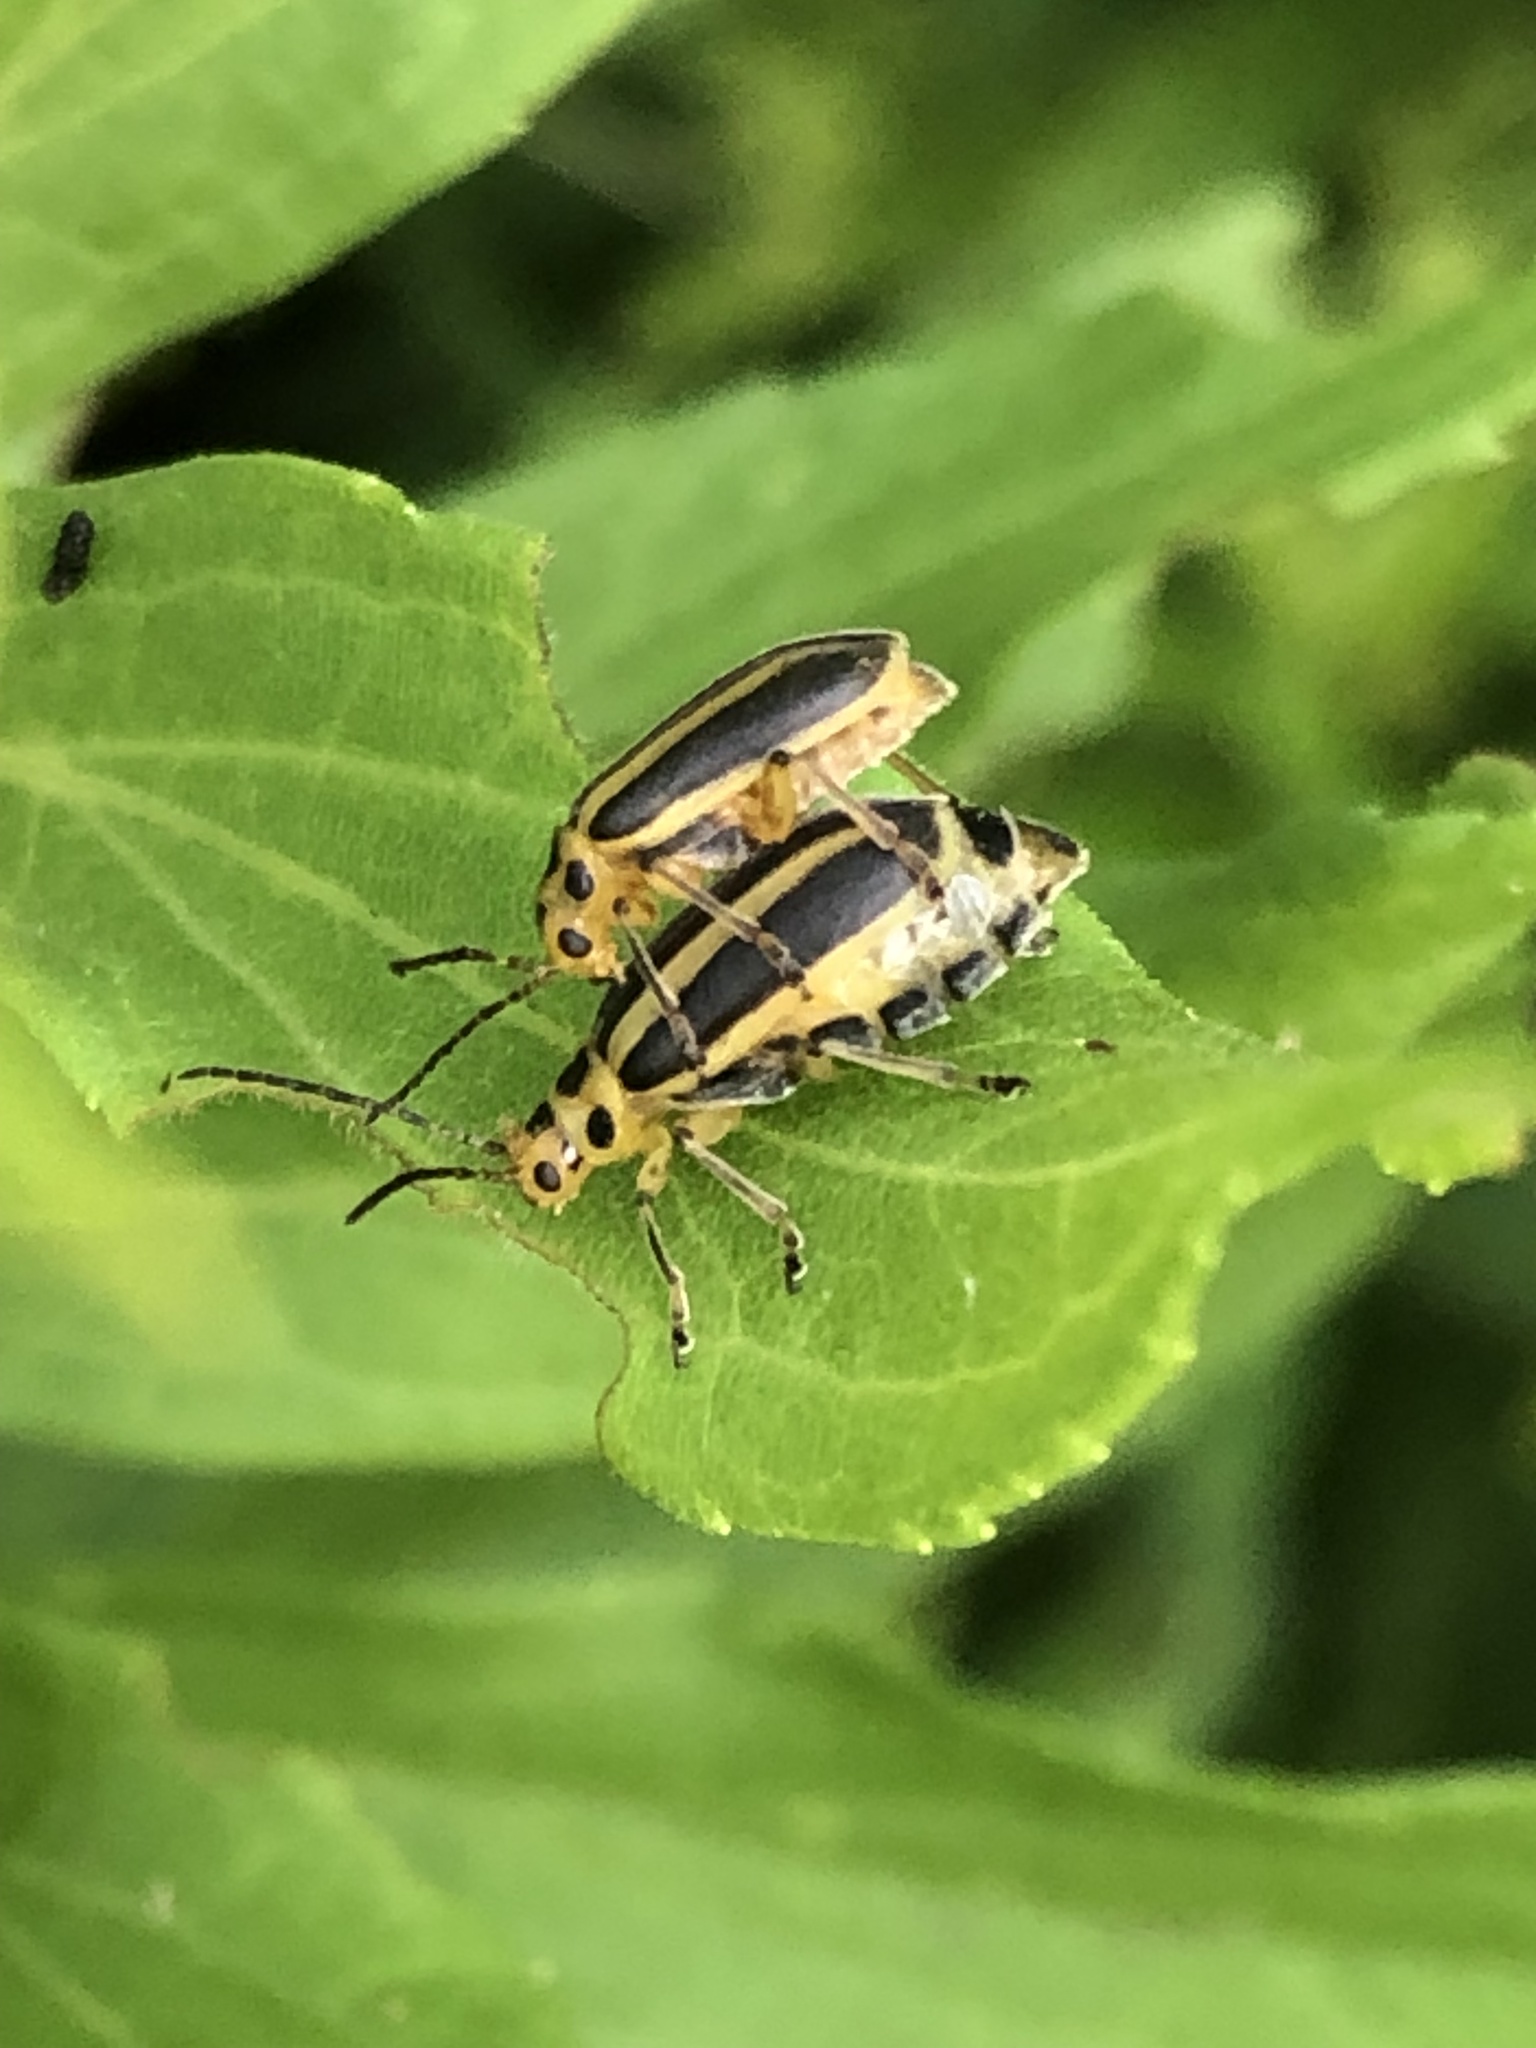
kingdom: Animalia
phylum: Arthropoda
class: Insecta
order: Coleoptera
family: Chrysomelidae
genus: Trirhabda
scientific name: Trirhabda canadensis
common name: Goldenrod leaf beetle
